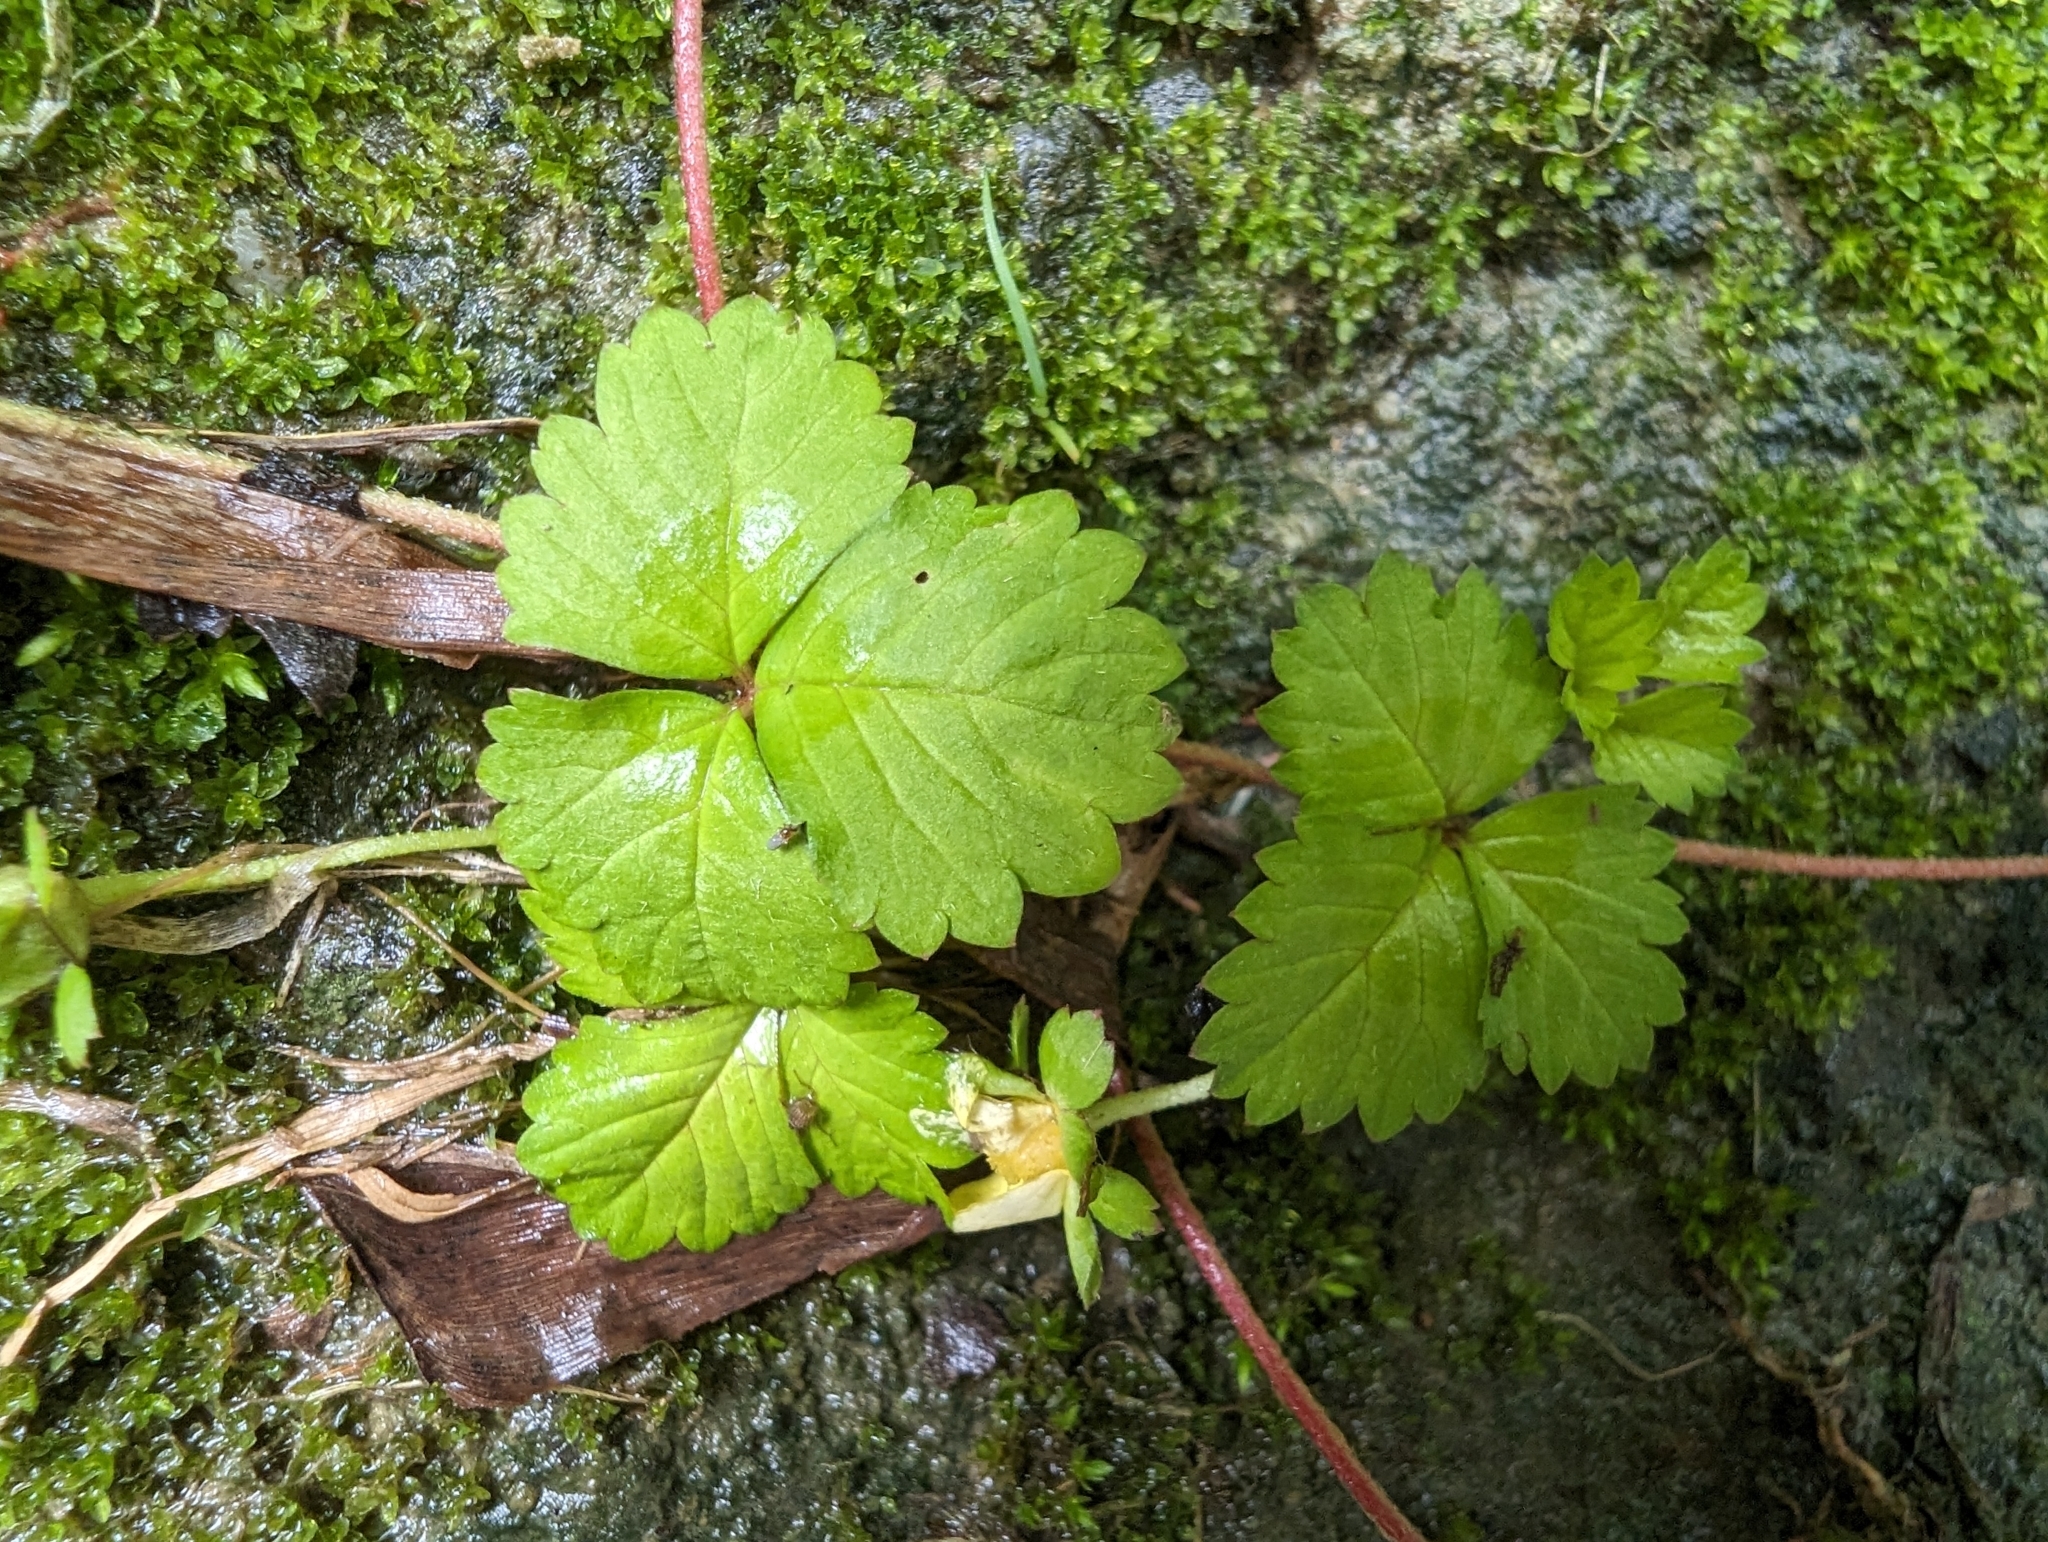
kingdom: Plantae
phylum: Tracheophyta
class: Magnoliopsida
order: Rosales
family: Rosaceae
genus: Potentilla
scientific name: Potentilla wallichiana
